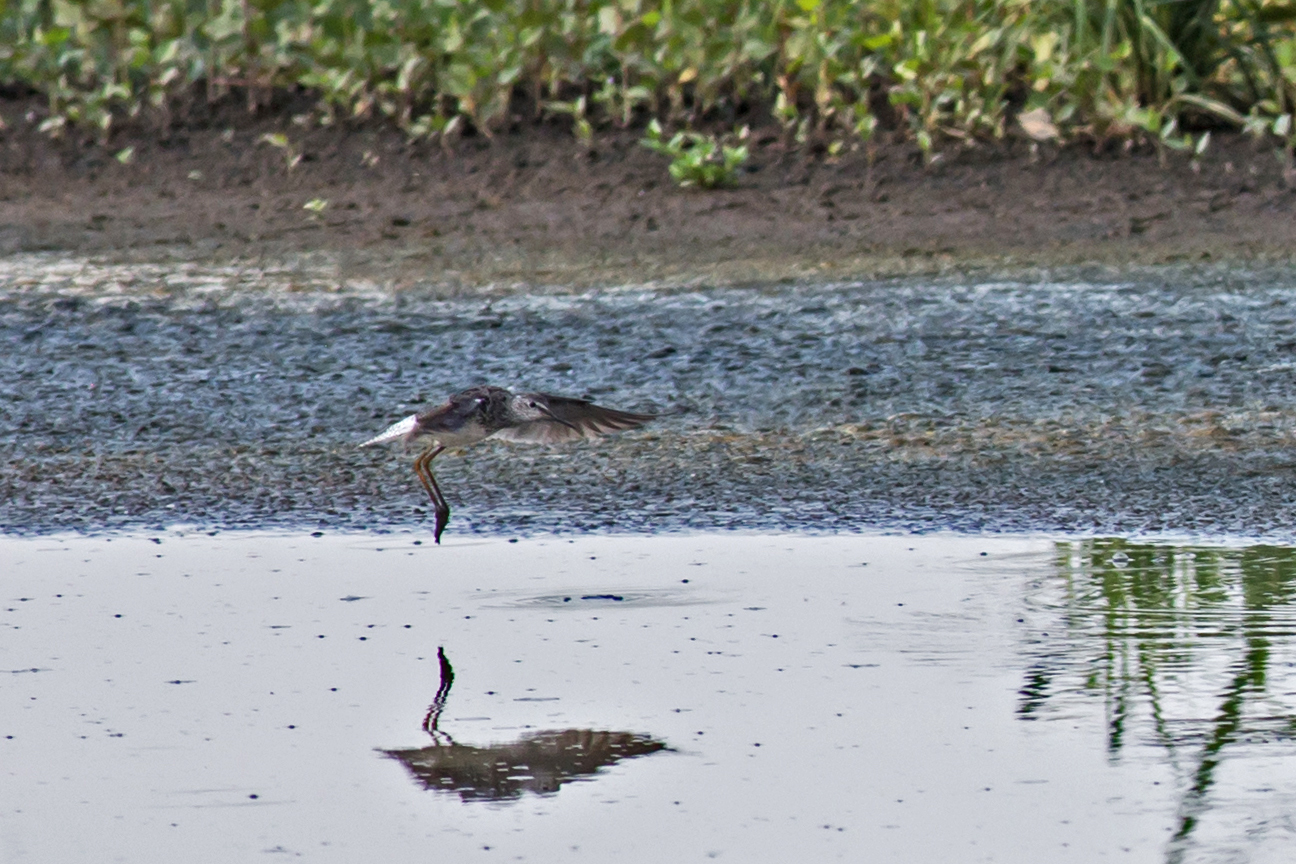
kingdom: Animalia
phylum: Chordata
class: Aves
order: Charadriiformes
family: Scolopacidae
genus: Tringa
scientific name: Tringa flavipes
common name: Lesser yellowlegs
